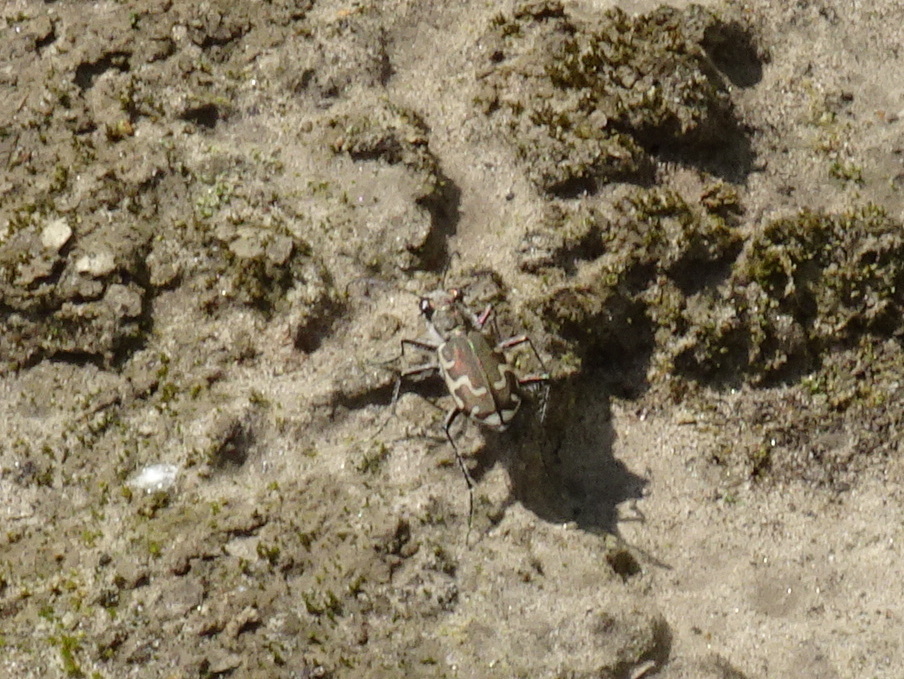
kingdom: Animalia
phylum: Arthropoda
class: Insecta
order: Coleoptera
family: Carabidae
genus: Cicindela
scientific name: Cicindela repanda
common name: Bronzed tiger beetle
